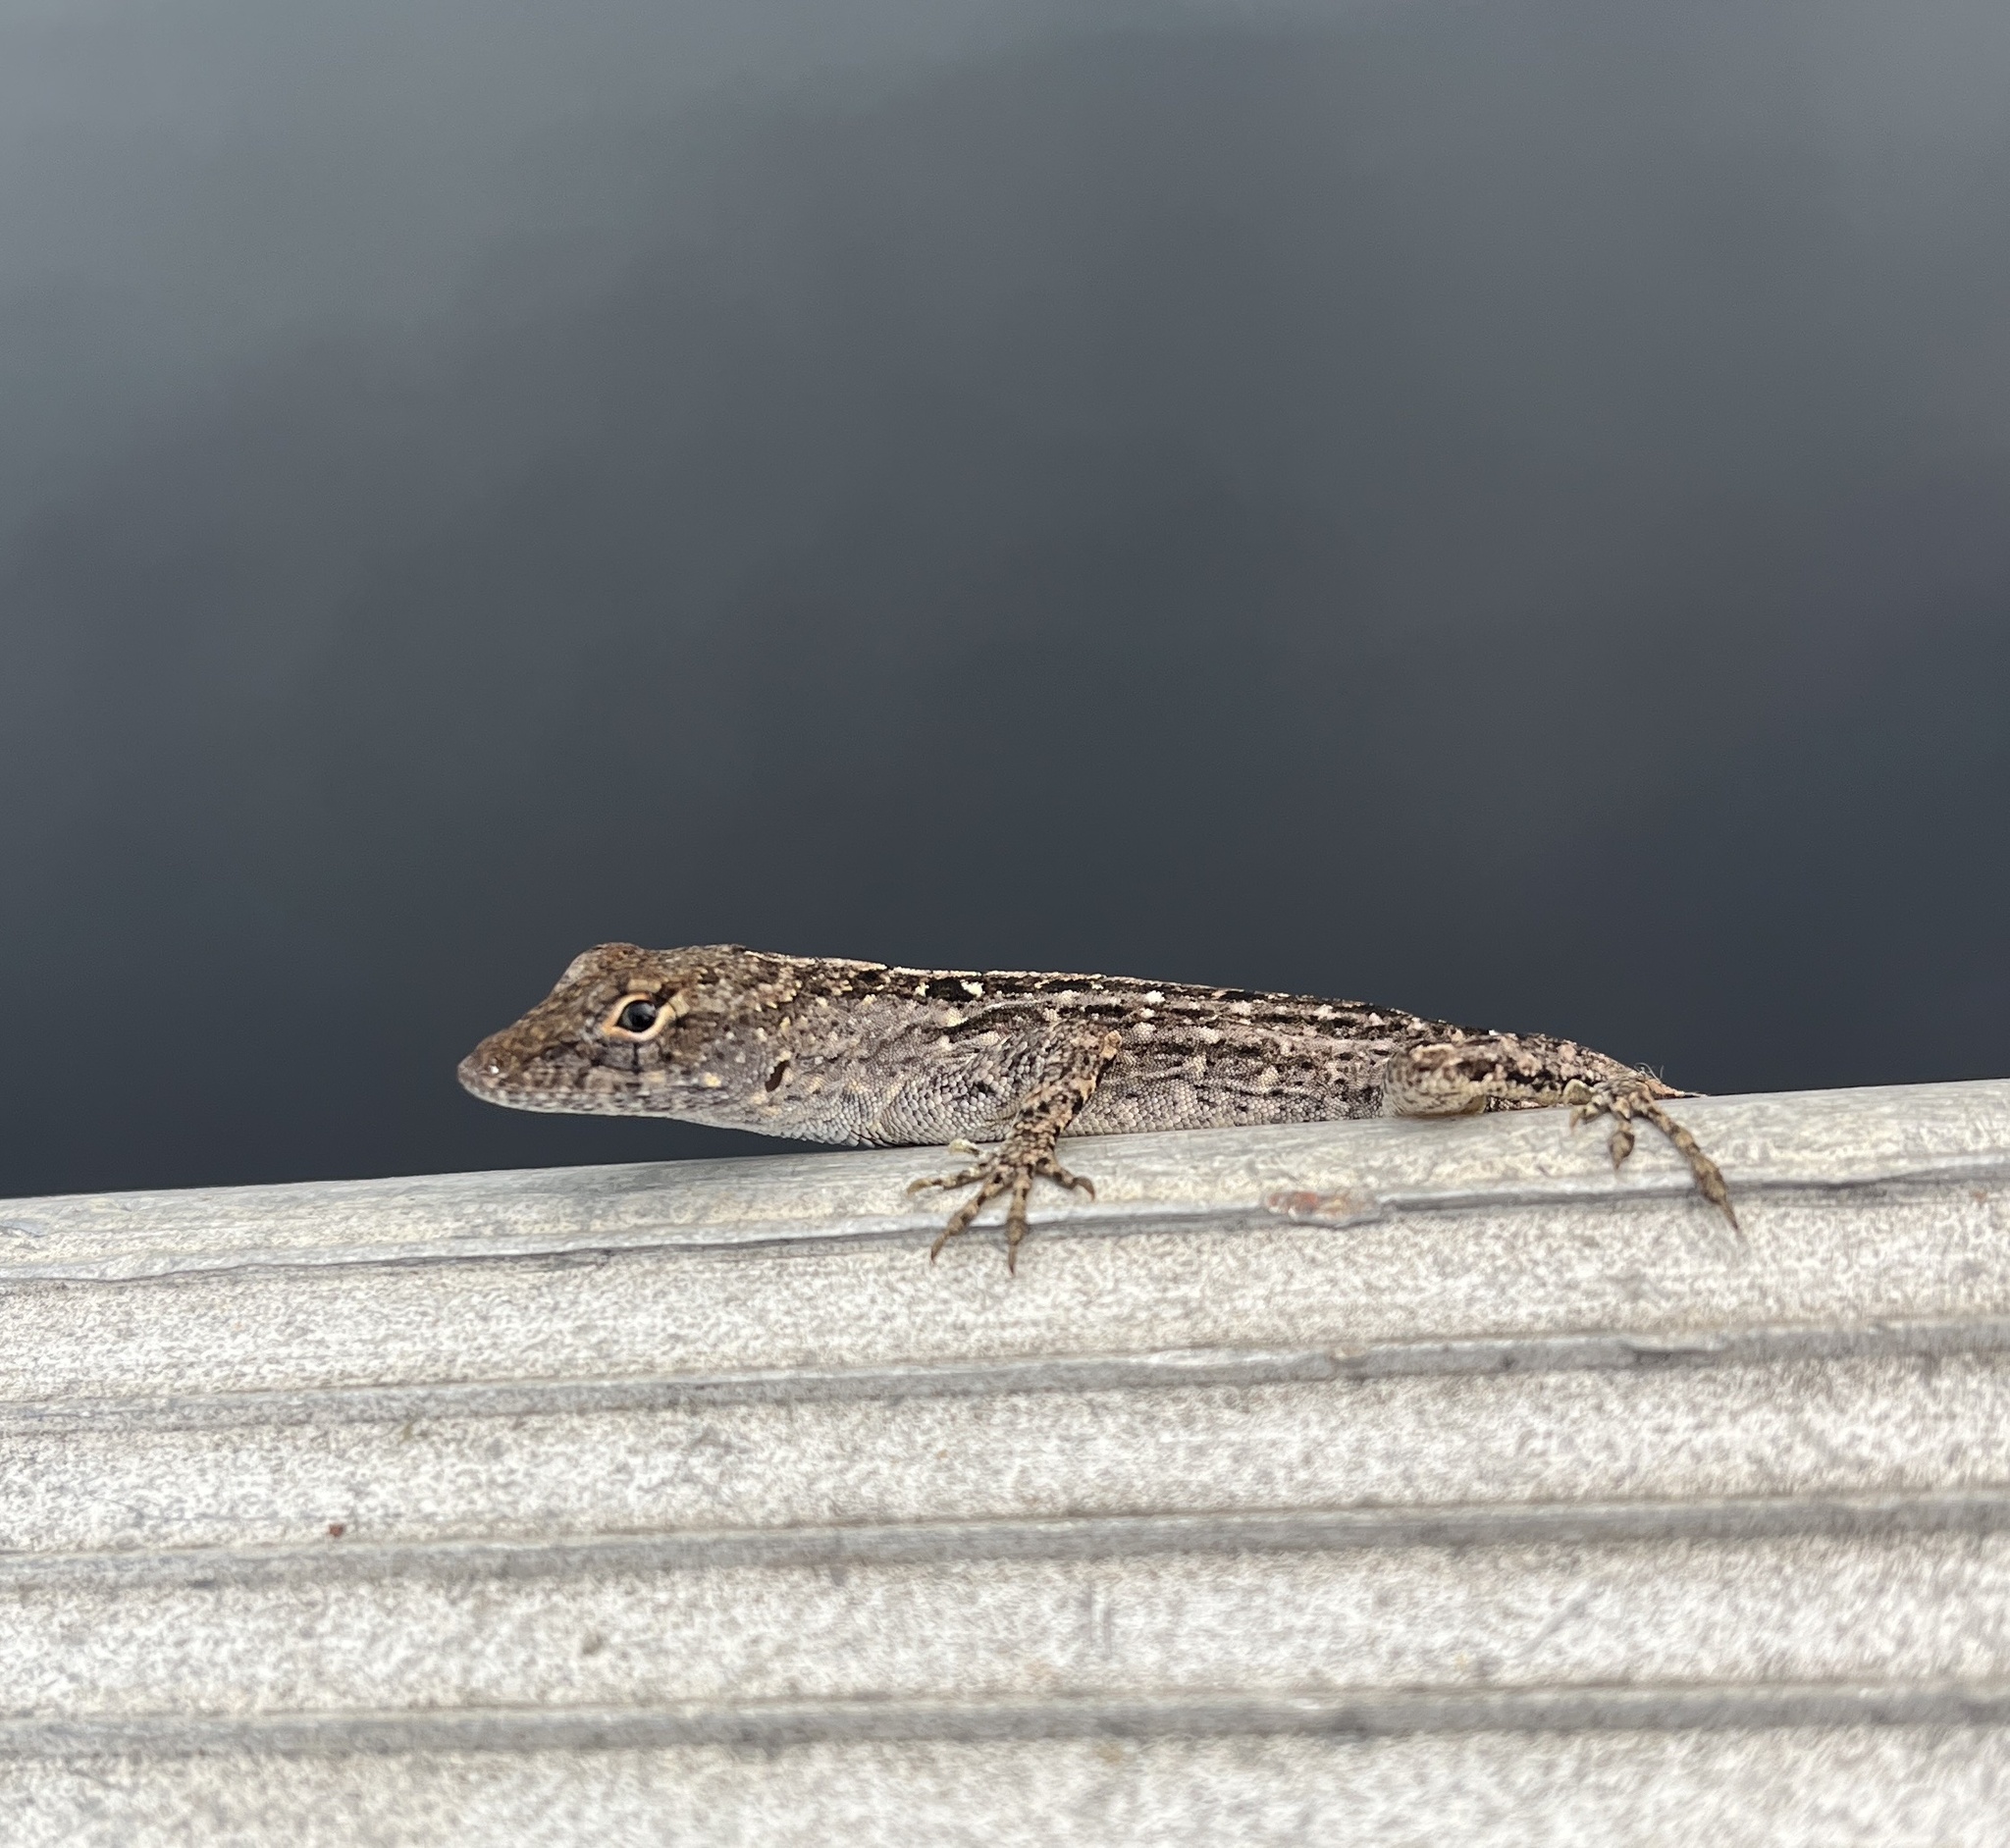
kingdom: Animalia
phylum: Chordata
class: Squamata
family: Dactyloidae
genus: Anolis
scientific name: Anolis sagrei
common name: Brown anole
